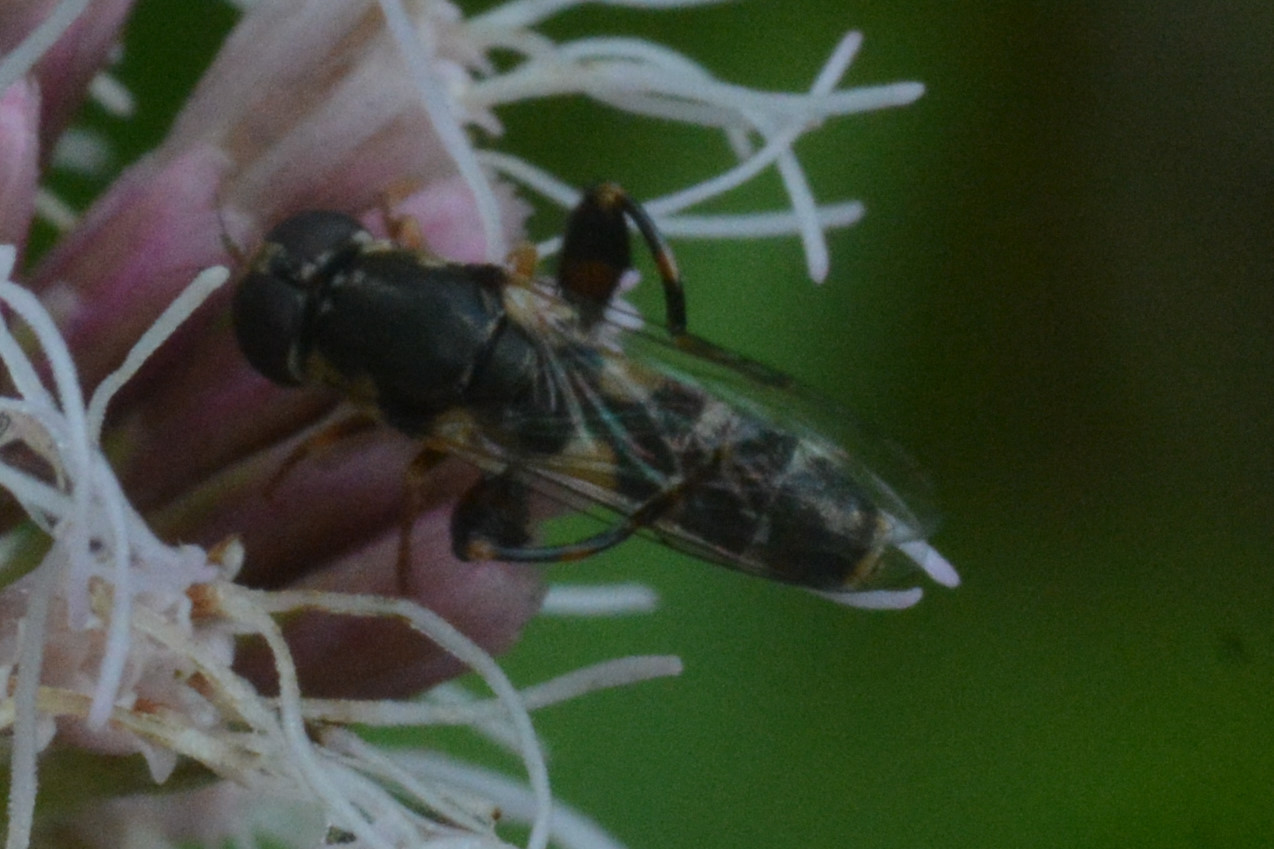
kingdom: Animalia
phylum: Arthropoda
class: Insecta
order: Diptera
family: Syrphidae
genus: Syritta
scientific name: Syritta pipiens
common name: Hover fly
